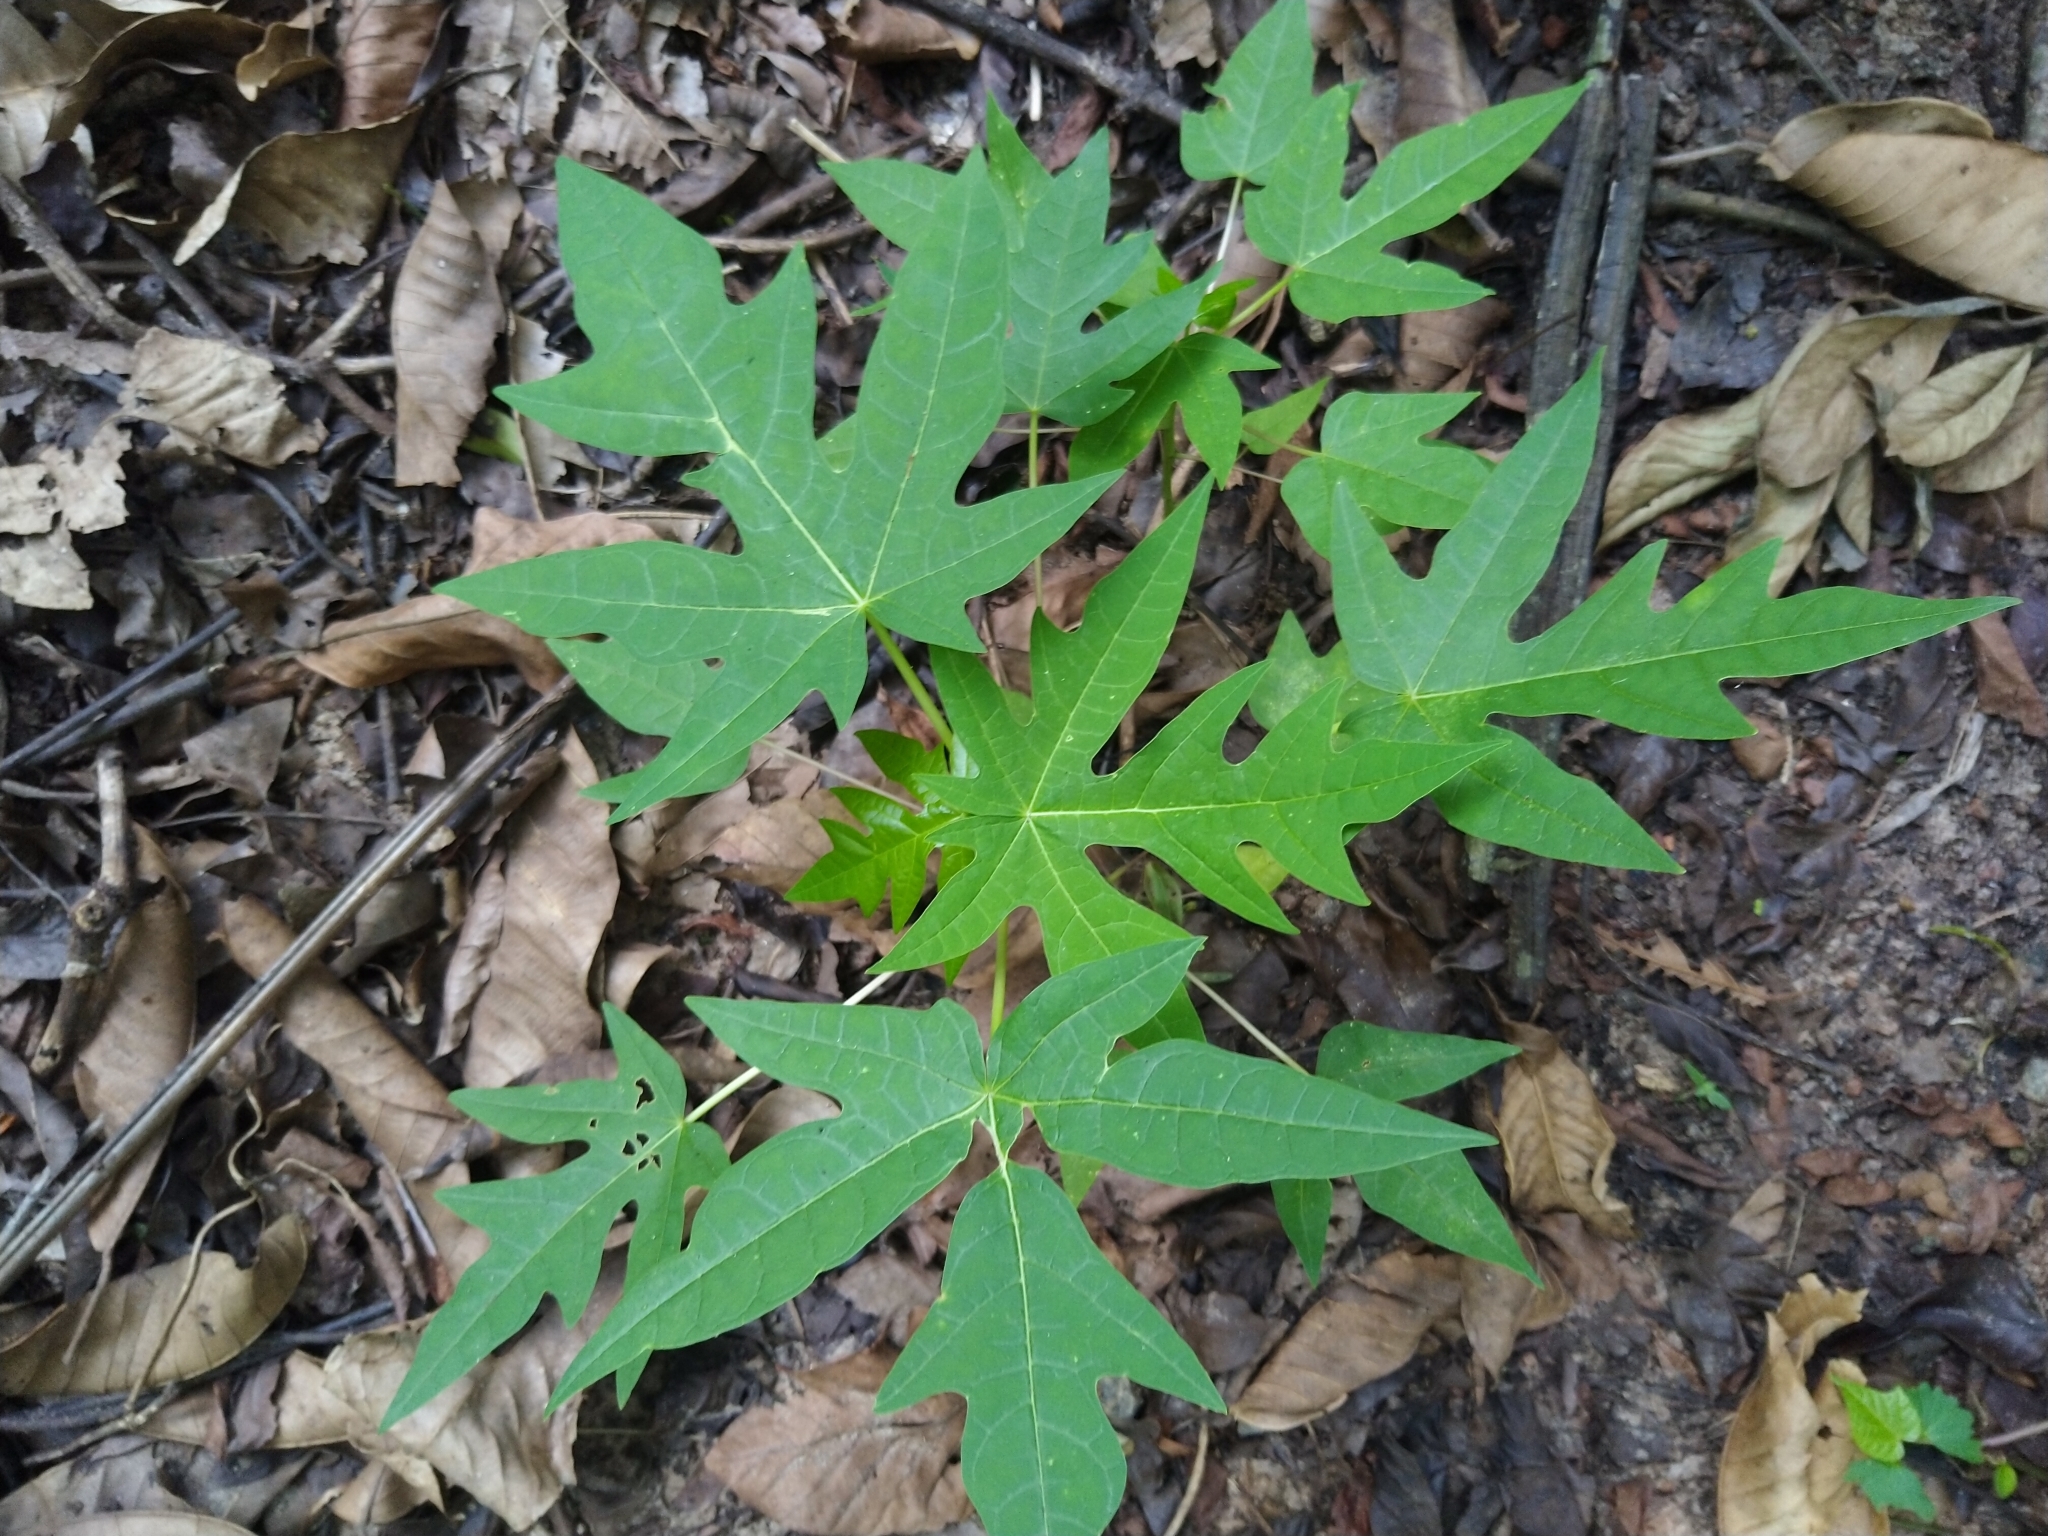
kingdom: Plantae
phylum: Tracheophyta
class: Magnoliopsida
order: Brassicales
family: Caricaceae
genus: Carica
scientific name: Carica papaya
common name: Papaya
